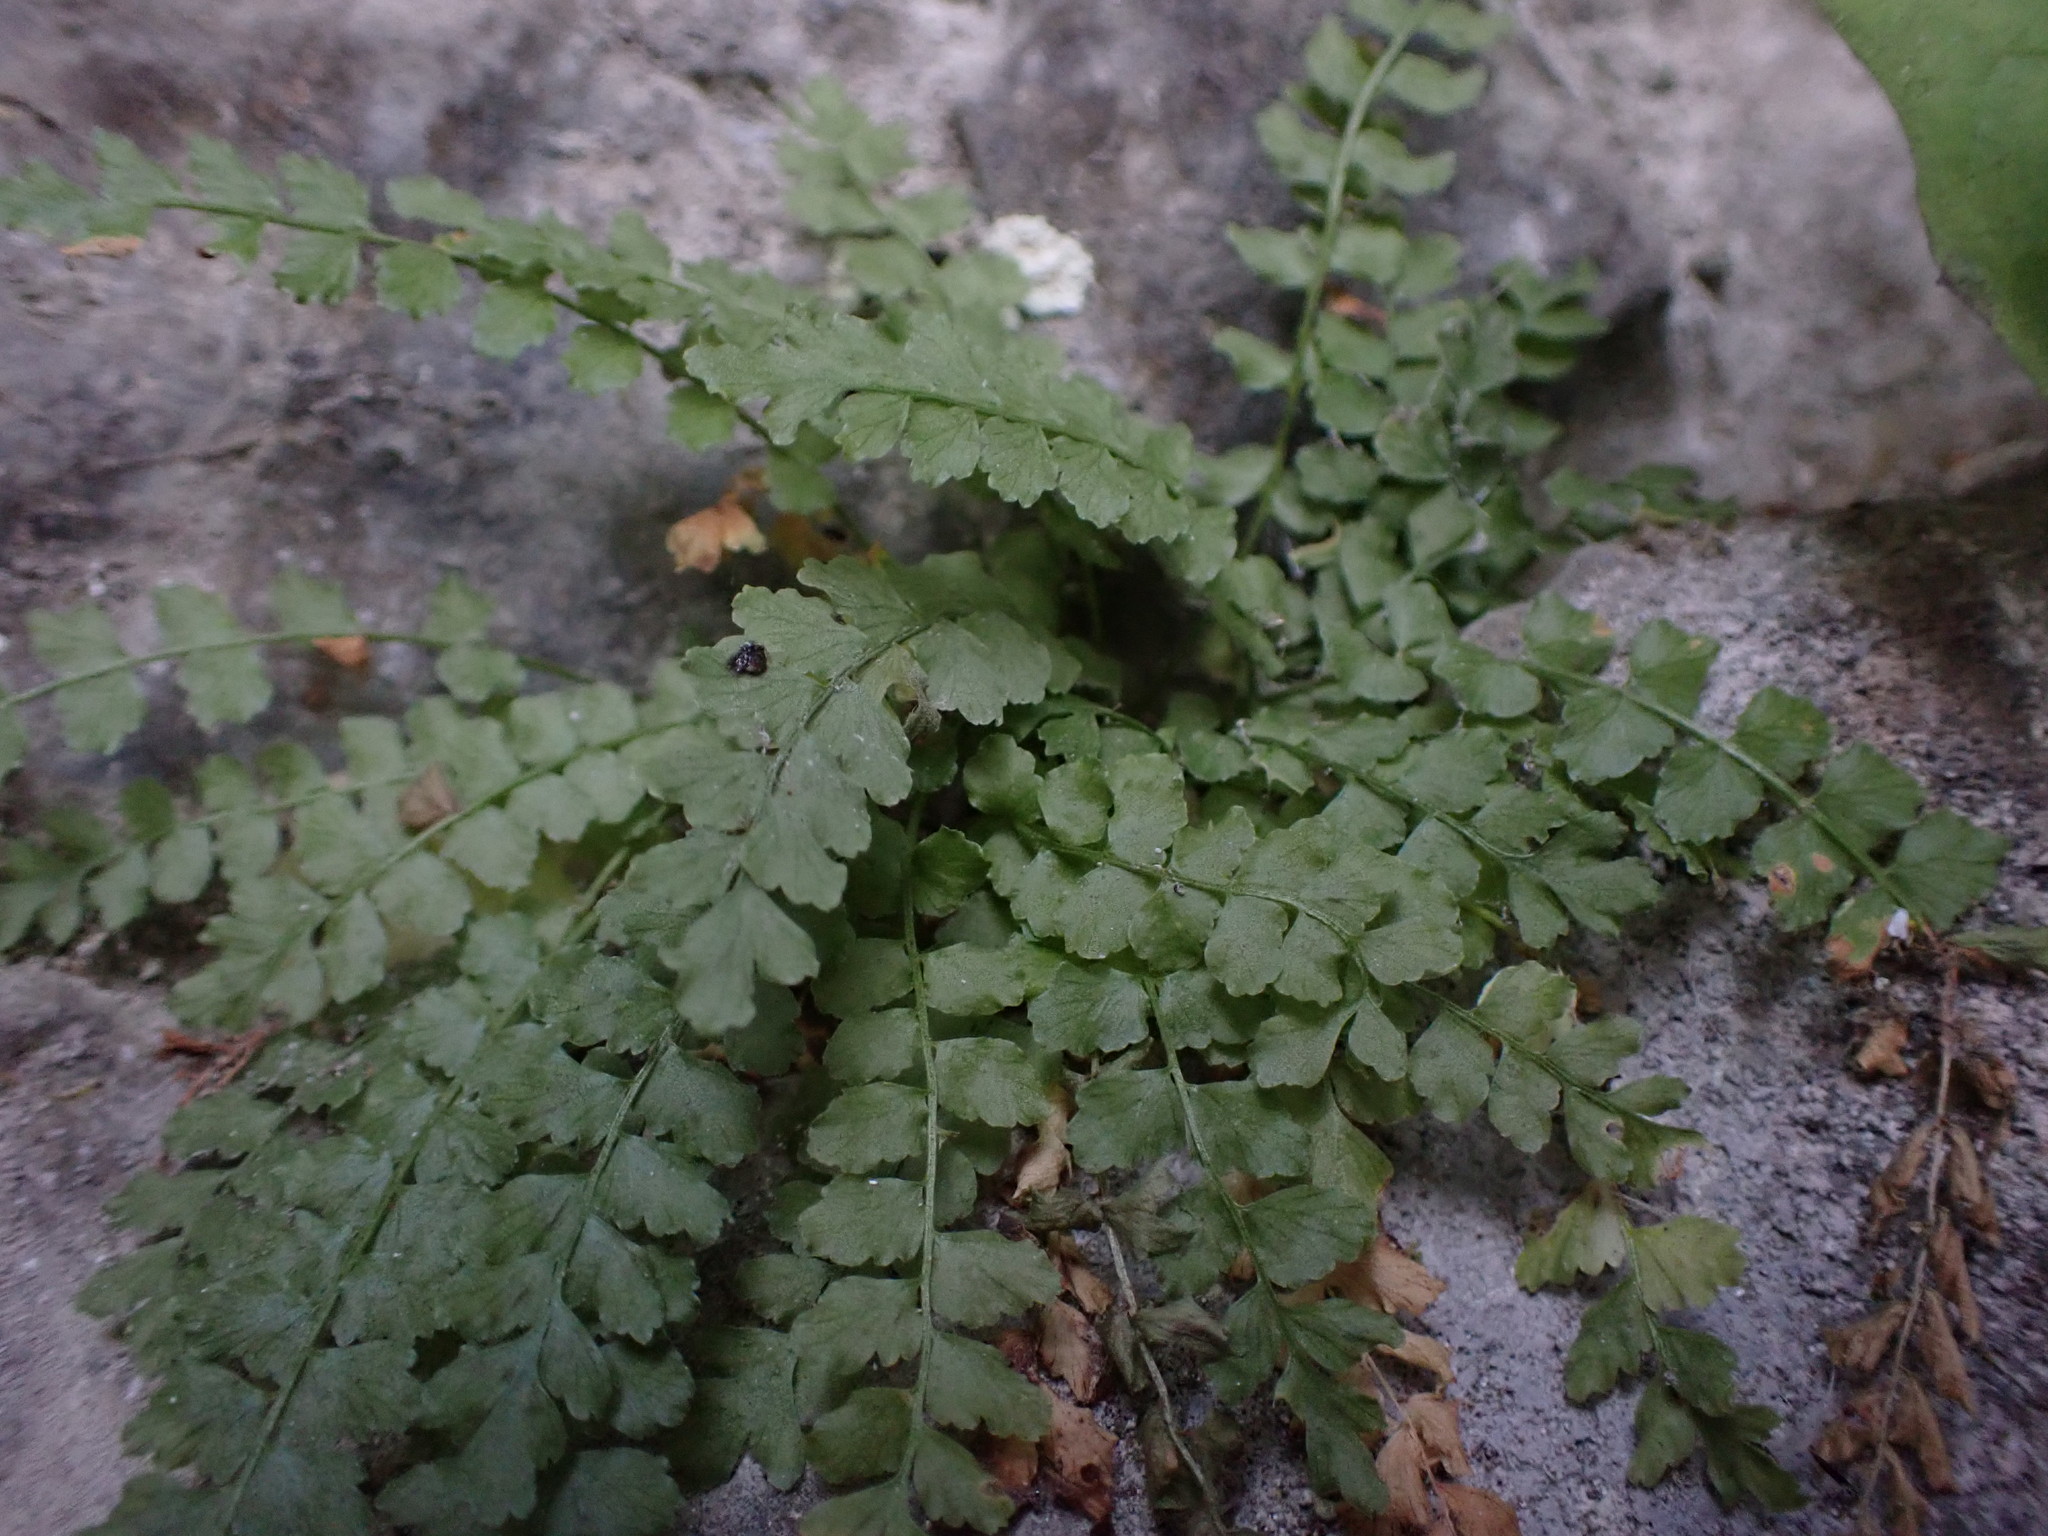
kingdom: Plantae
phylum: Tracheophyta
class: Polypodiopsida
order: Polypodiales
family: Aspleniaceae
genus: Asplenium
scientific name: Asplenium viride
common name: Green spleenwort
